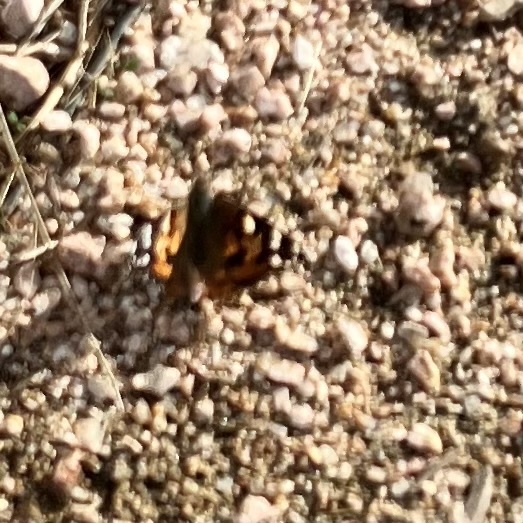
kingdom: Animalia
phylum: Arthropoda
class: Insecta
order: Lepidoptera
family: Nymphalidae
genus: Vanessa
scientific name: Vanessa cardui
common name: Painted lady
